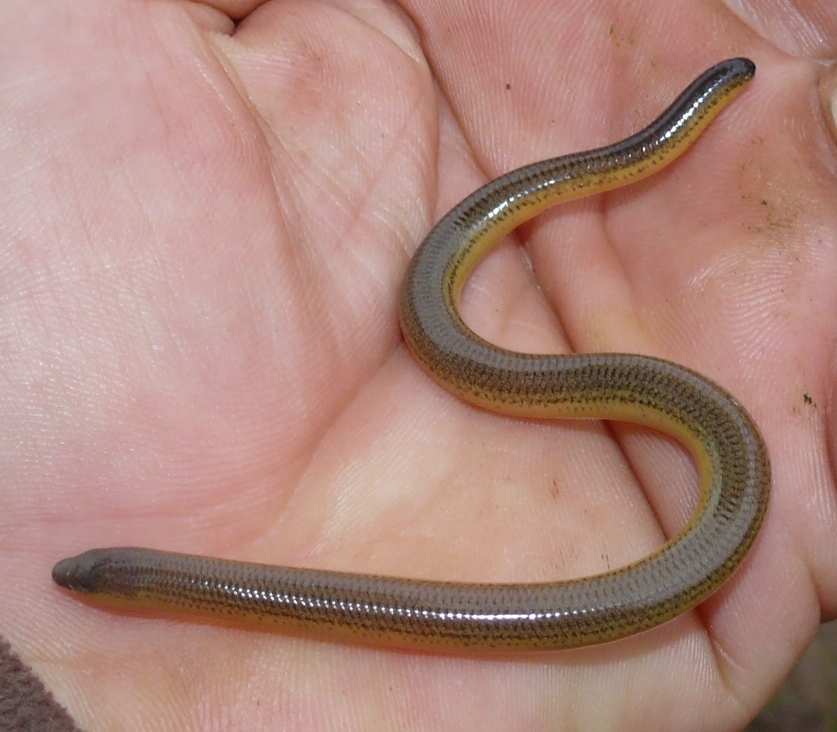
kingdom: Animalia
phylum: Chordata
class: Squamata
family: Scincidae
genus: Acontias
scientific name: Acontias meleagris
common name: Cape legless skink
